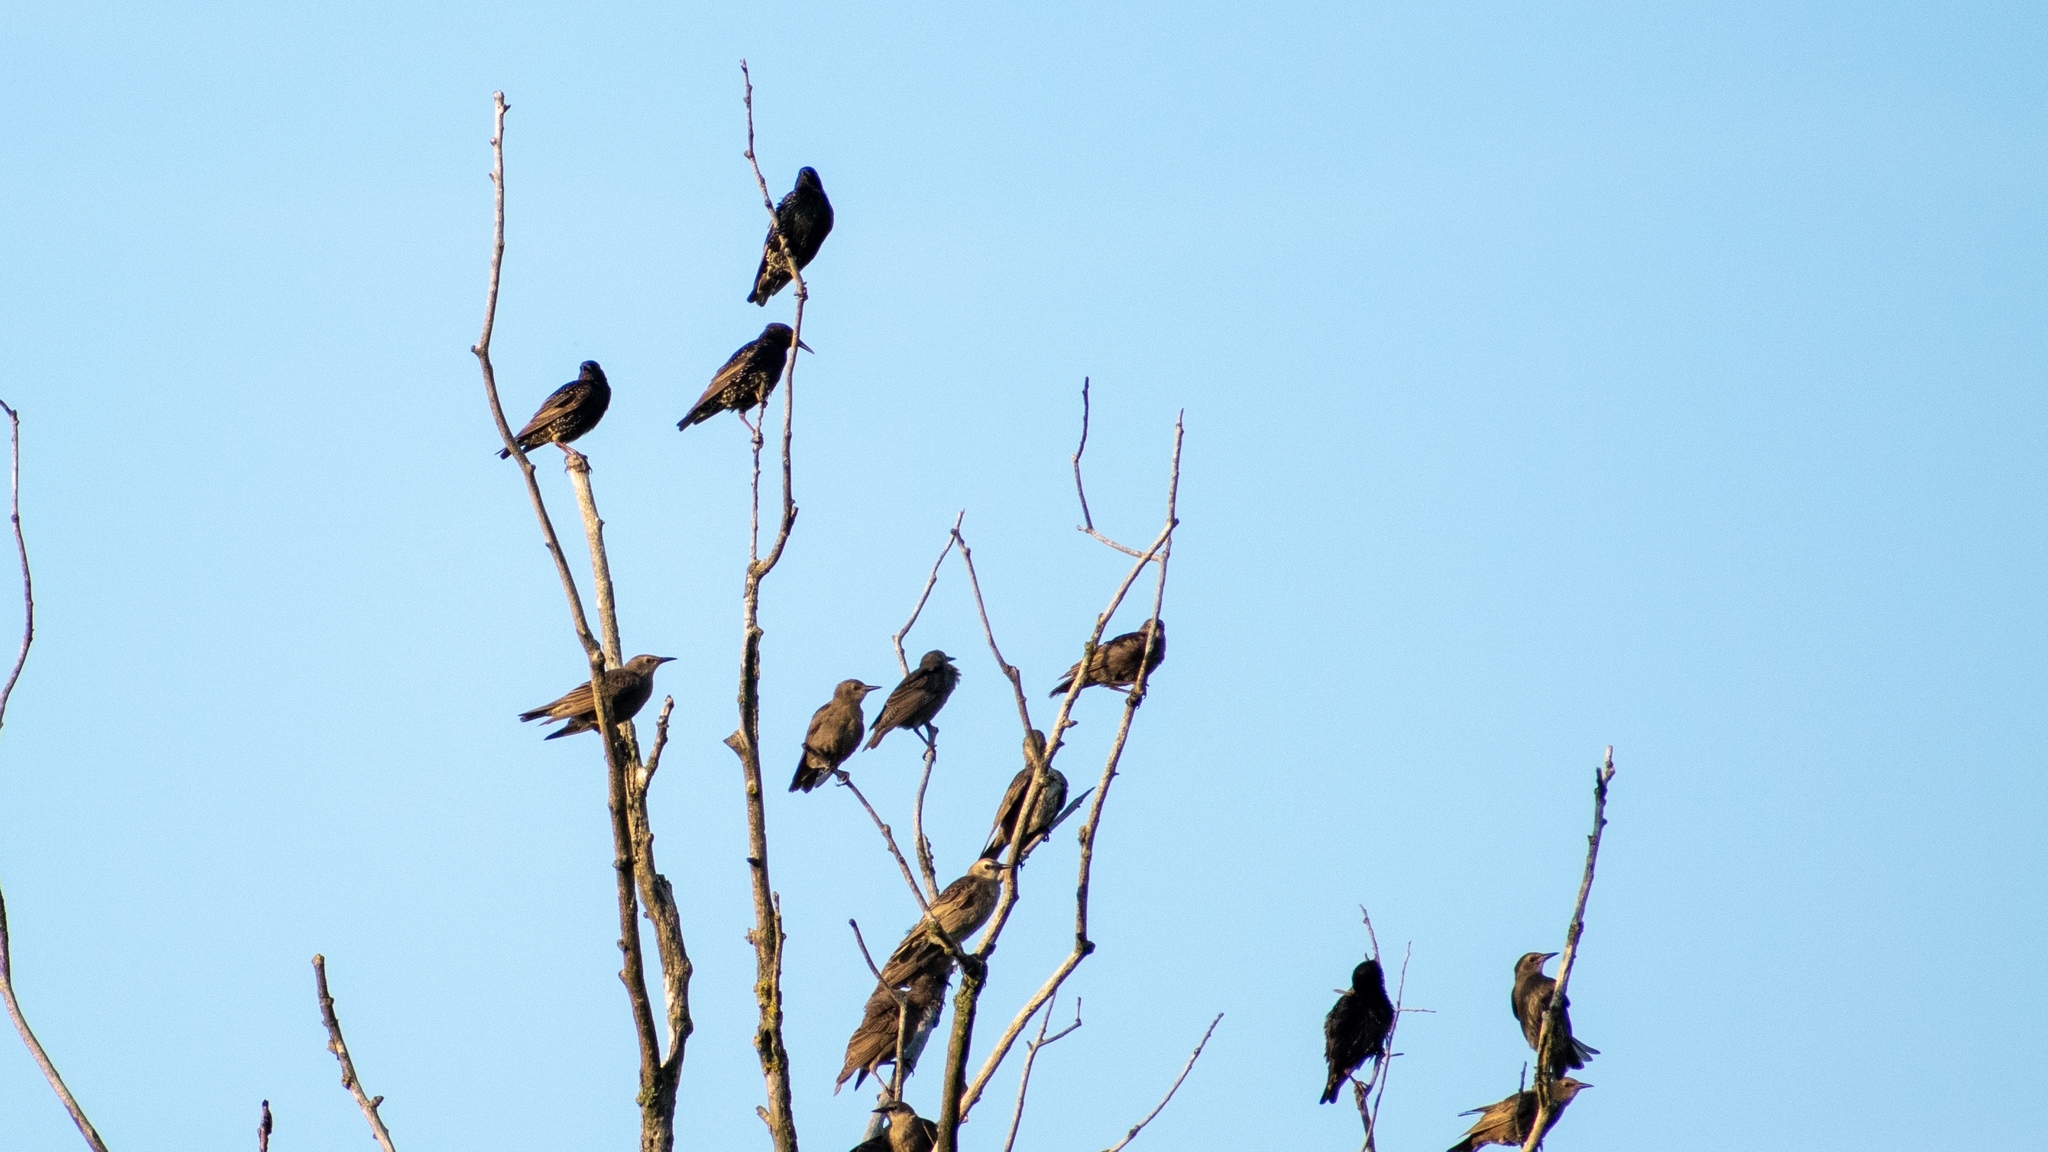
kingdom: Animalia
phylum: Chordata
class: Aves
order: Passeriformes
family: Sturnidae
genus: Sturnus
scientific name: Sturnus vulgaris
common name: Common starling
